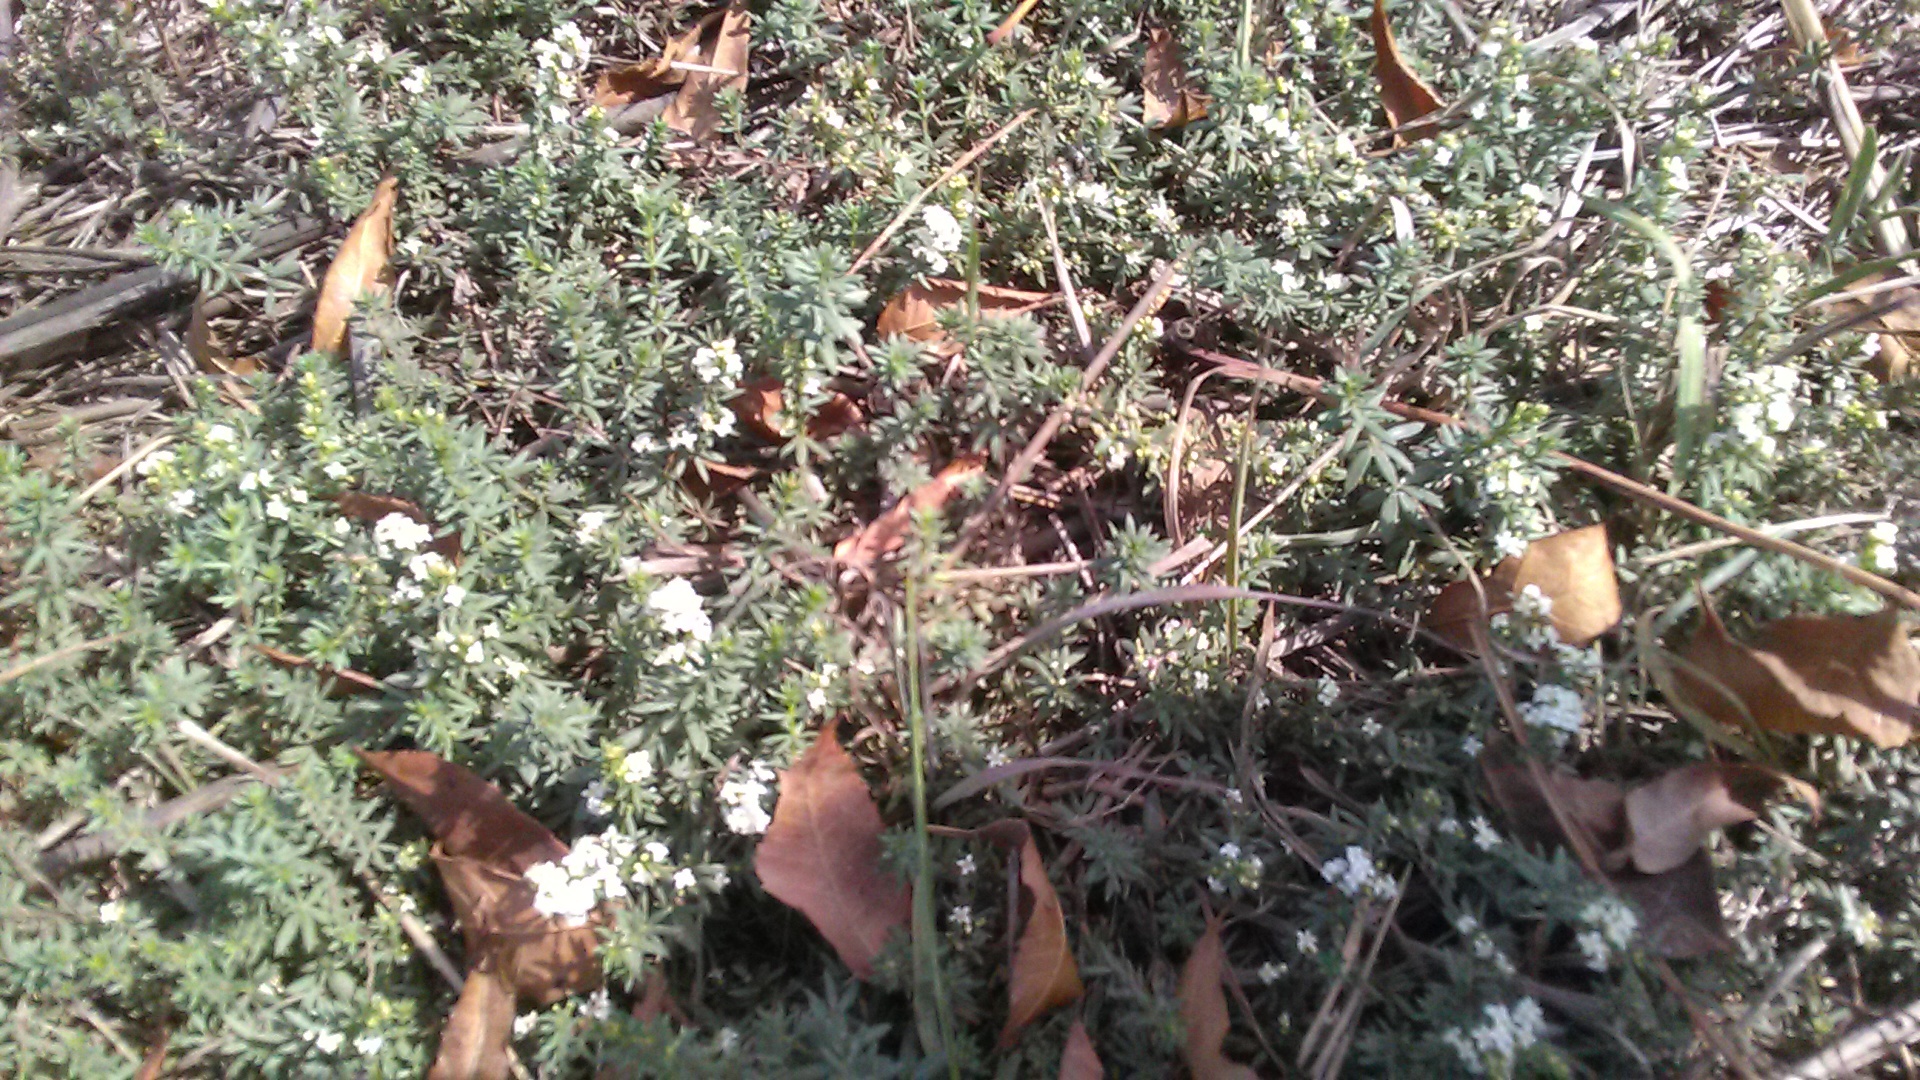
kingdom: Plantae
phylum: Tracheophyta
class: Magnoliopsida
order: Gentianales
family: Rubiaceae
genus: Galium
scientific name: Galium humifusum
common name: Spreading bedstraw
